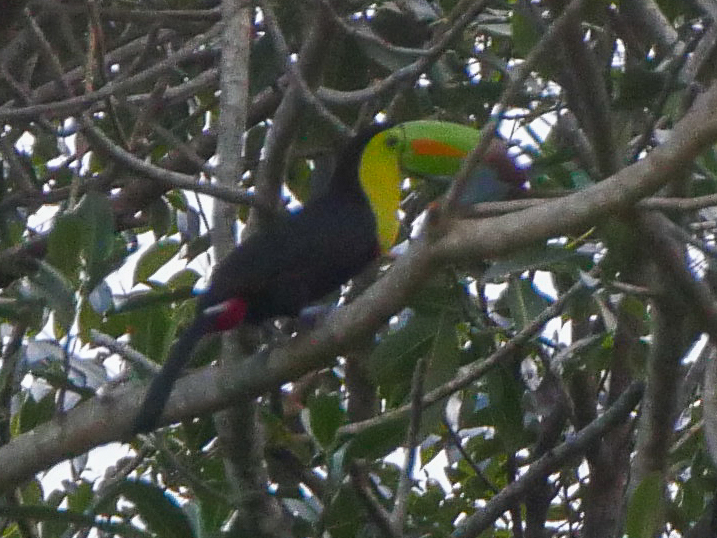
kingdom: Animalia
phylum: Chordata
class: Aves
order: Piciformes
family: Ramphastidae
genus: Ramphastos
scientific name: Ramphastos sulfuratus
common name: Keel-billed toucan
